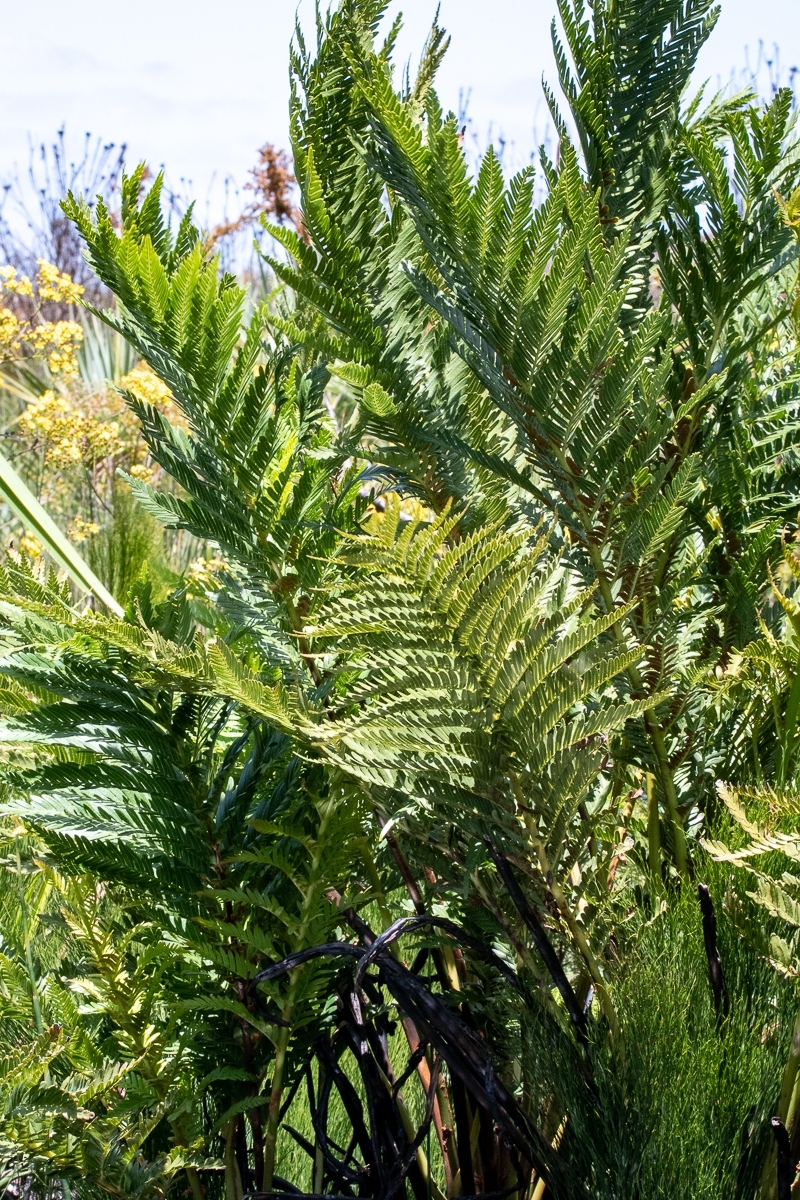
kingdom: Plantae
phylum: Tracheophyta
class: Polypodiopsida
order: Osmundales
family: Osmundaceae
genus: Todea
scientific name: Todea barbara
